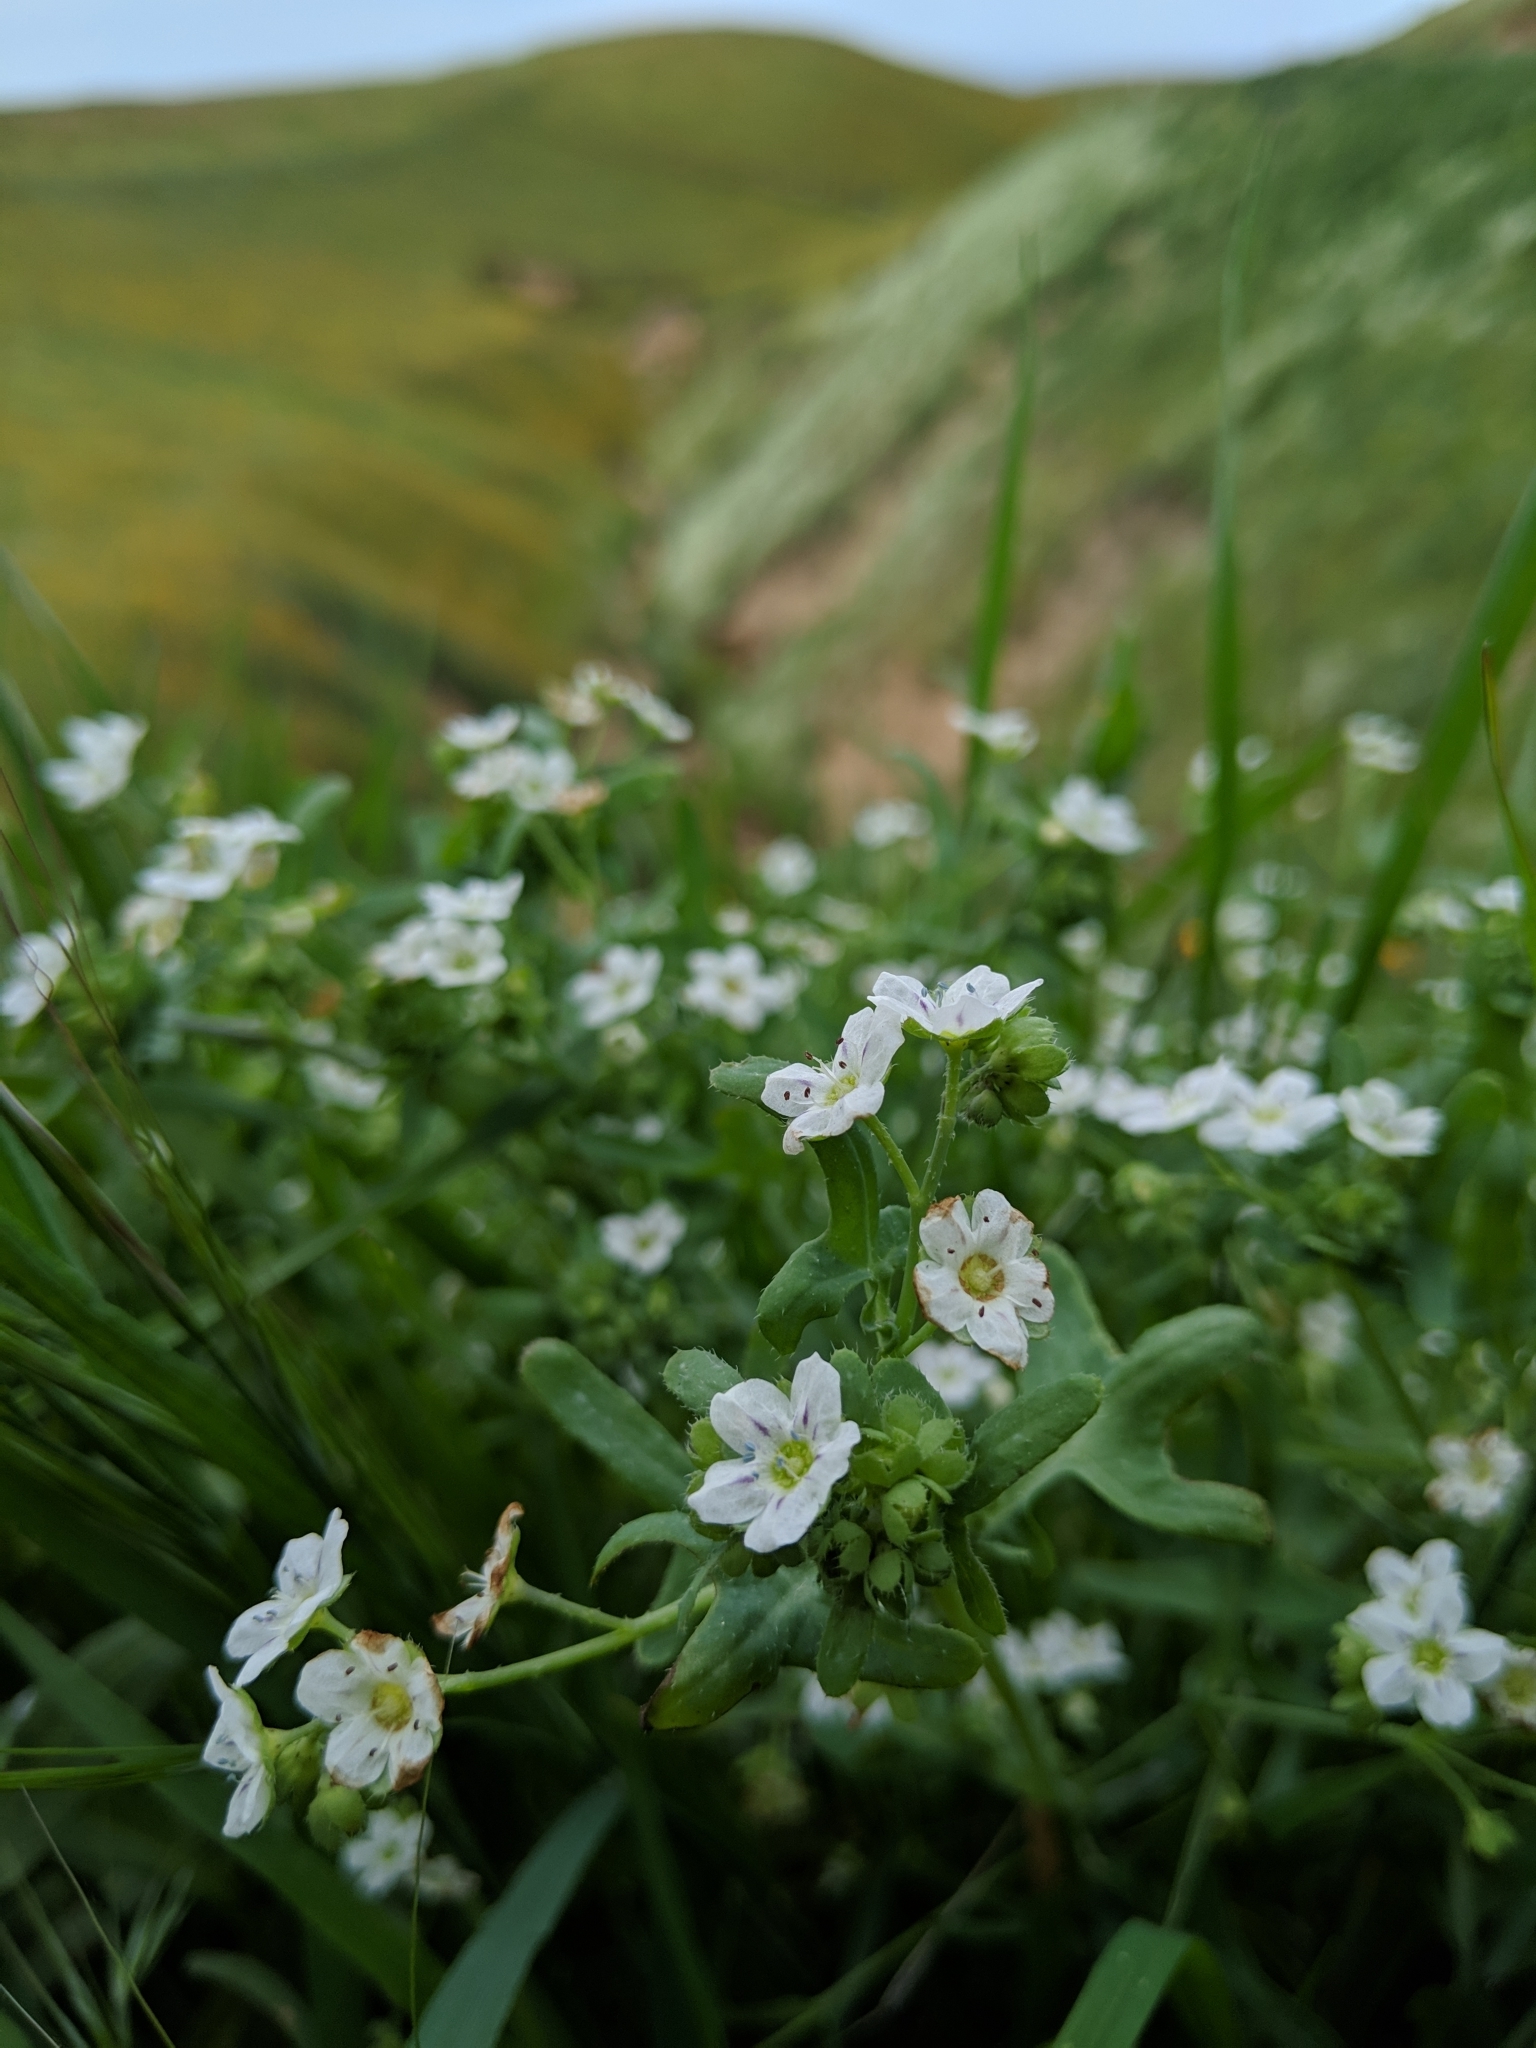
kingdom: Plantae
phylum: Tracheophyta
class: Magnoliopsida
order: Boraginales
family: Hydrophyllaceae
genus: Pholistoma
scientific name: Pholistoma membranaceum
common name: White fiesta-flower
